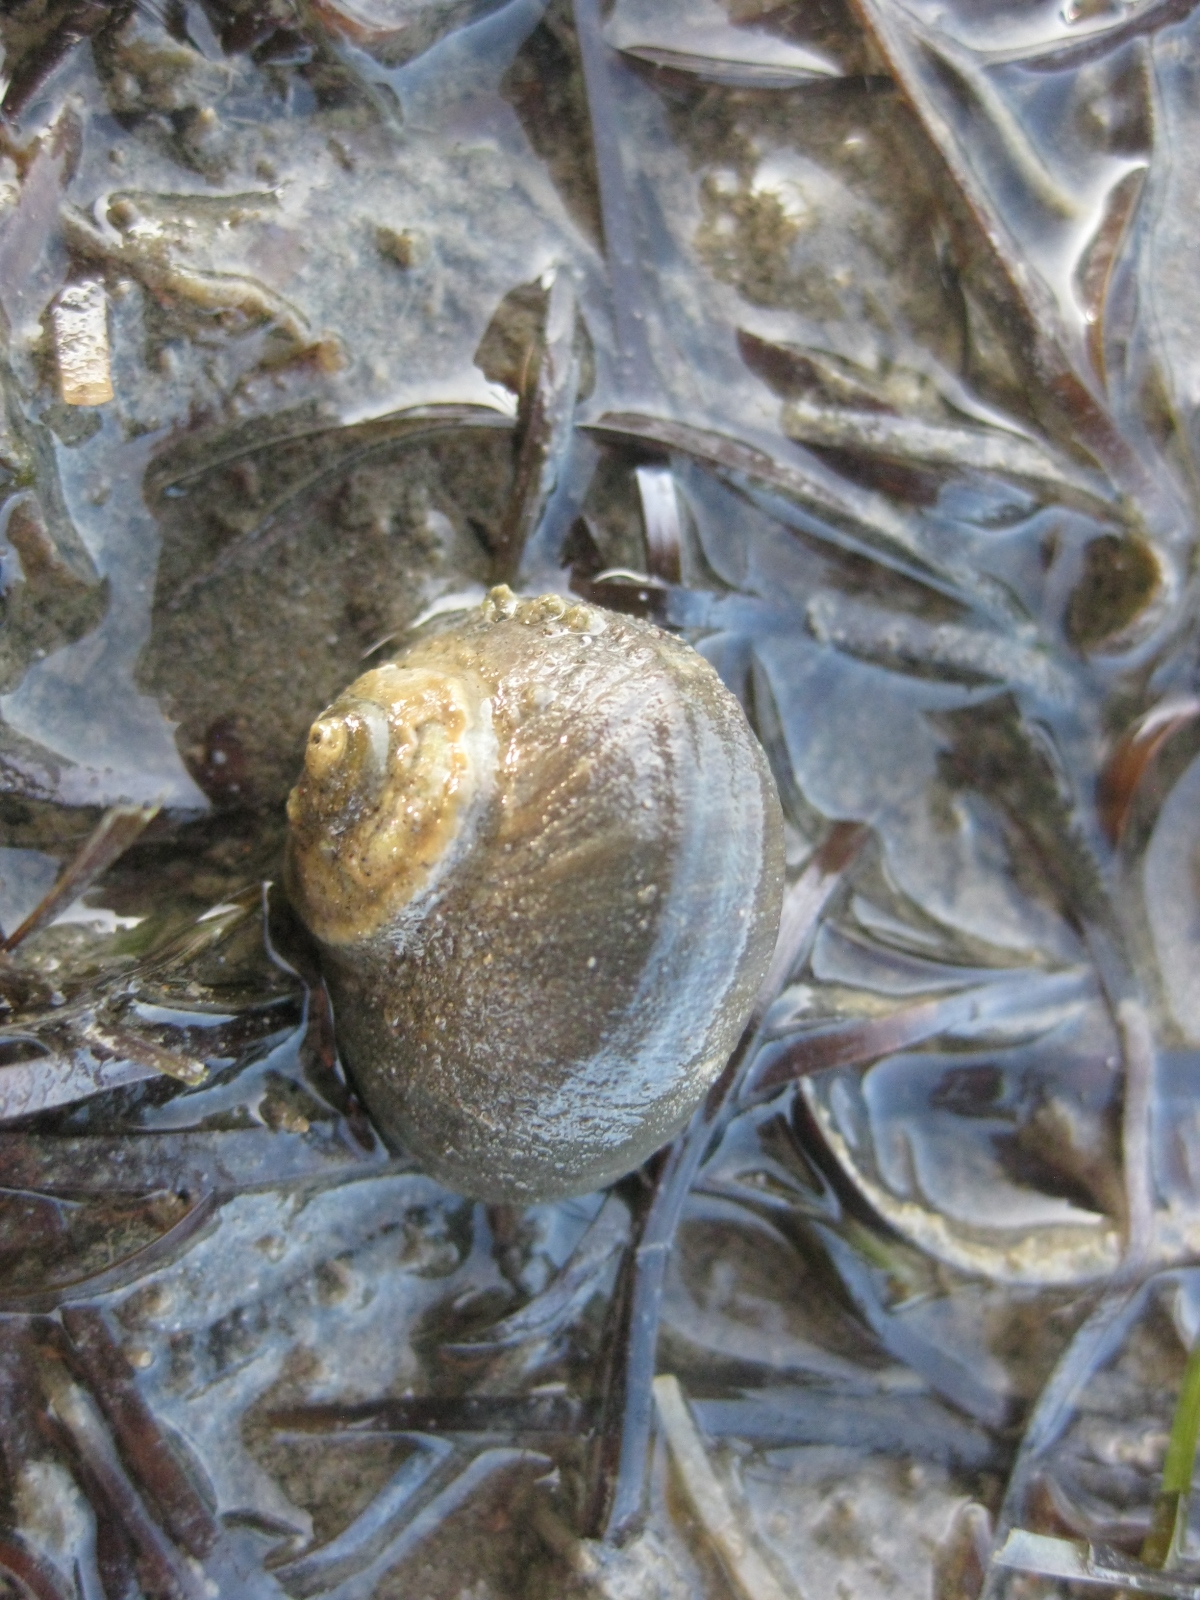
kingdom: Animalia
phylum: Mollusca
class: Gastropoda
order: Trochida
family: Turbinidae
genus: Lunella
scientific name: Lunella smaragda
